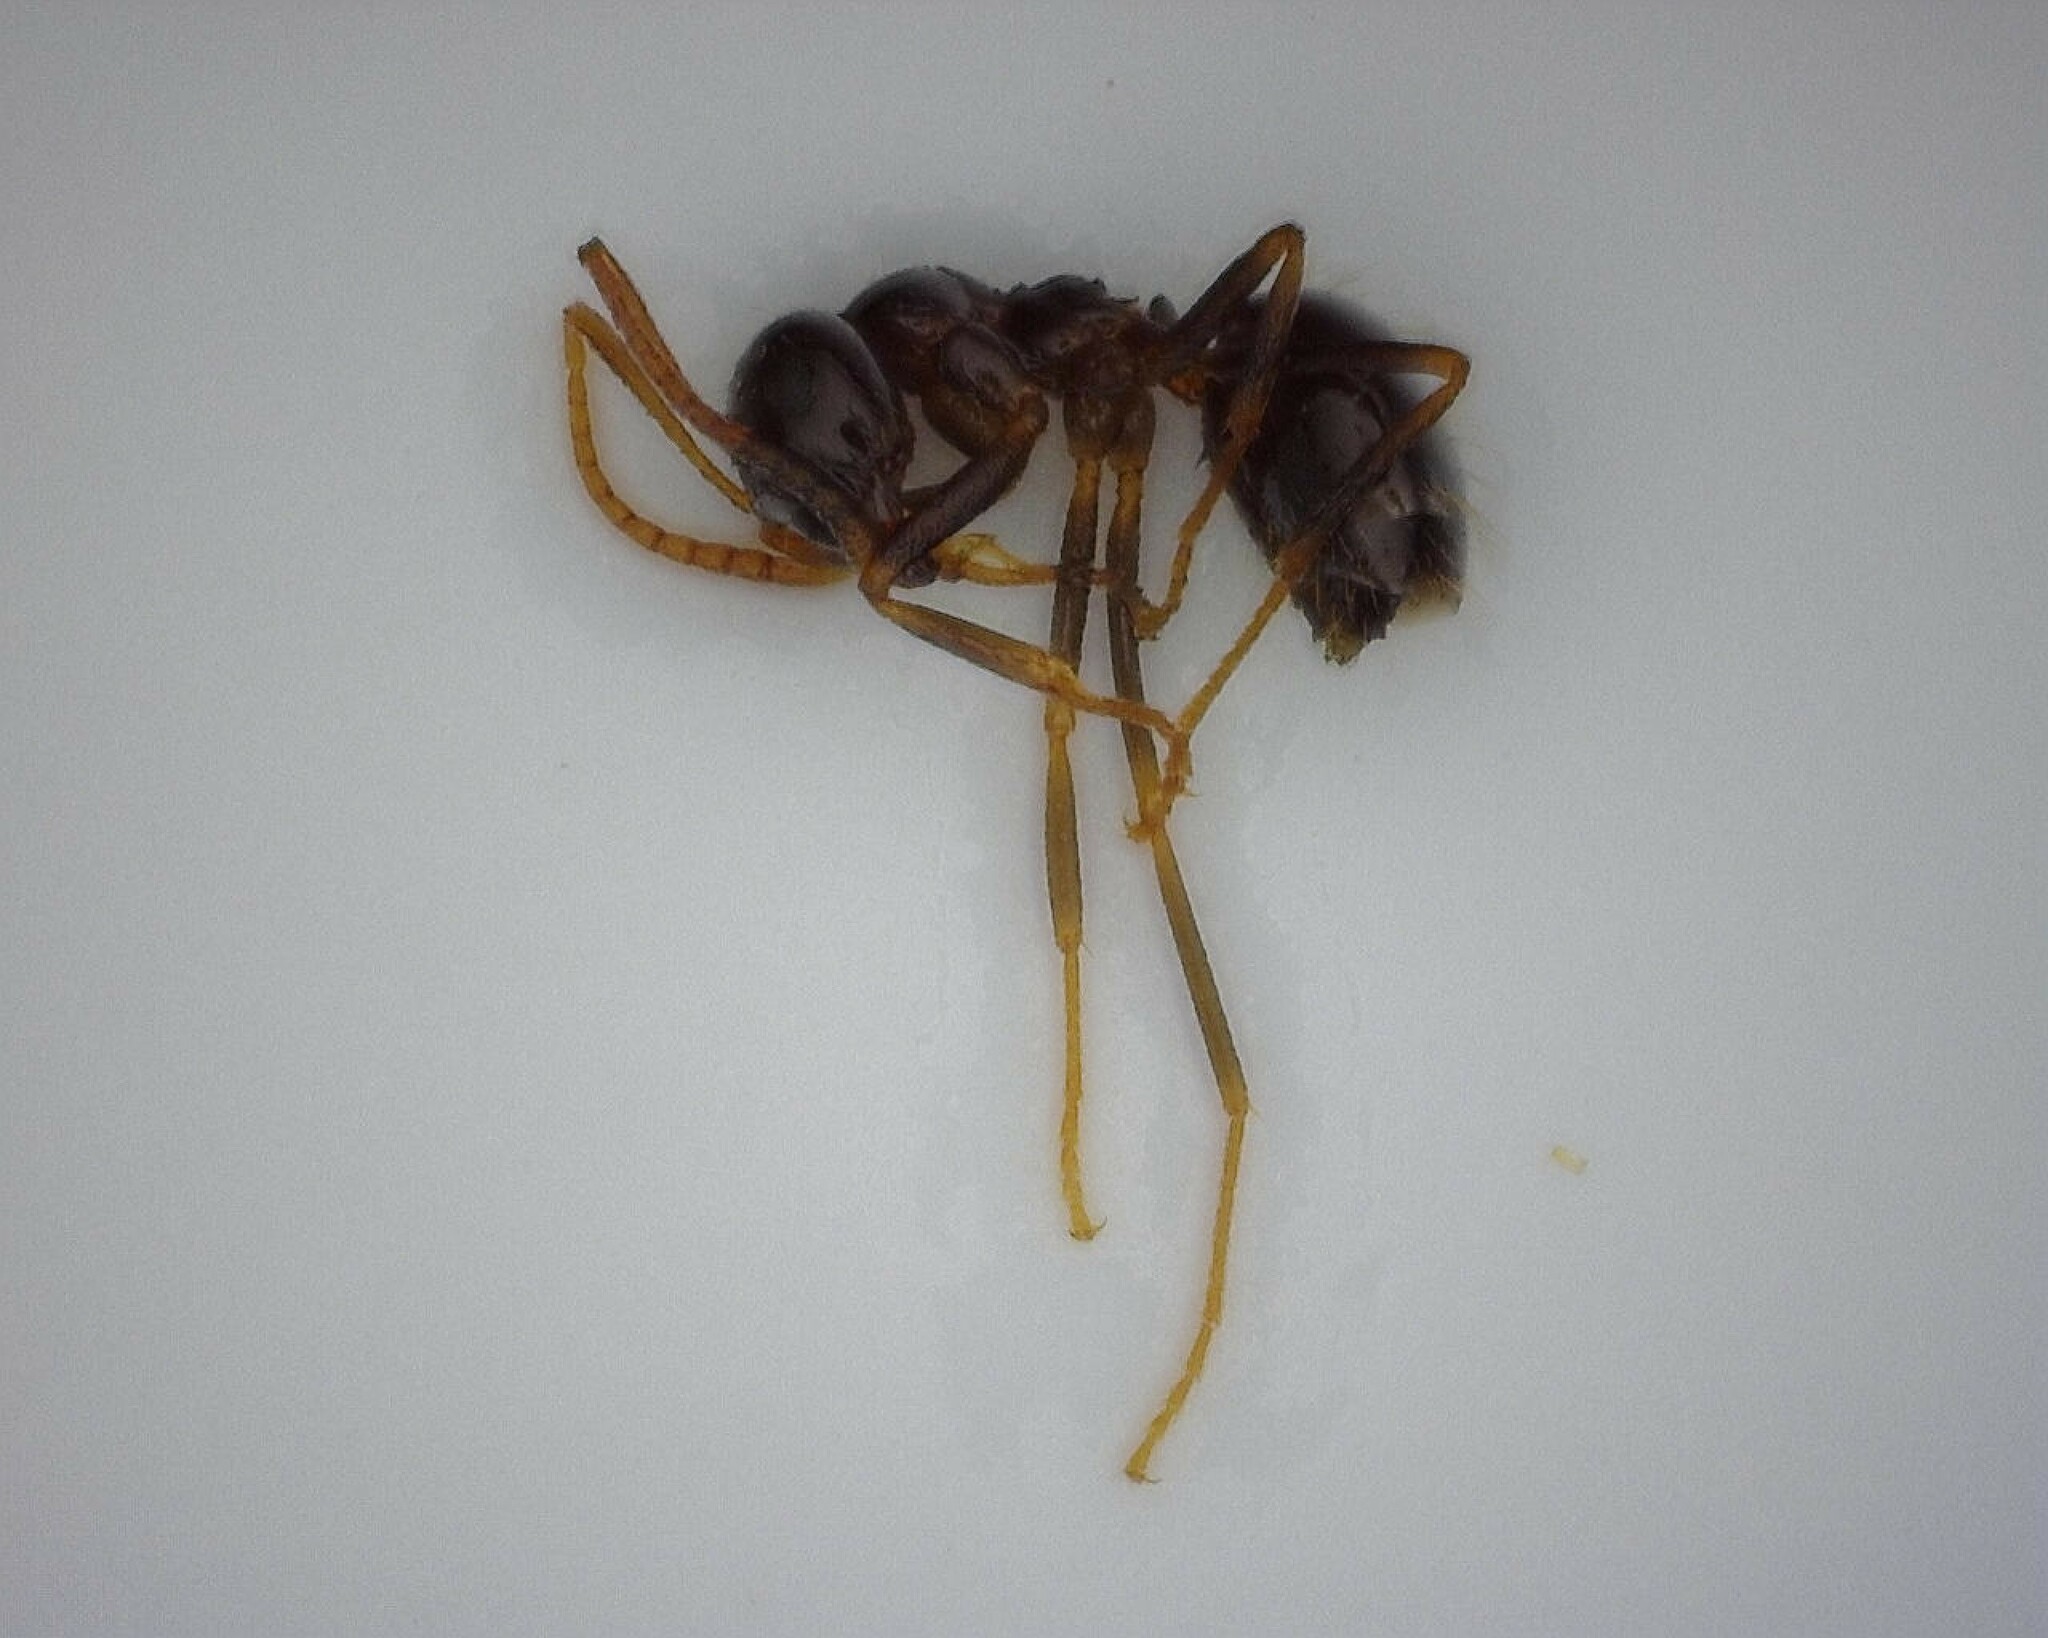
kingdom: Animalia
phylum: Arthropoda
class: Insecta
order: Hymenoptera
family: Formicidae
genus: Prenolepis
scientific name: Prenolepis imparis
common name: Small honey ant
